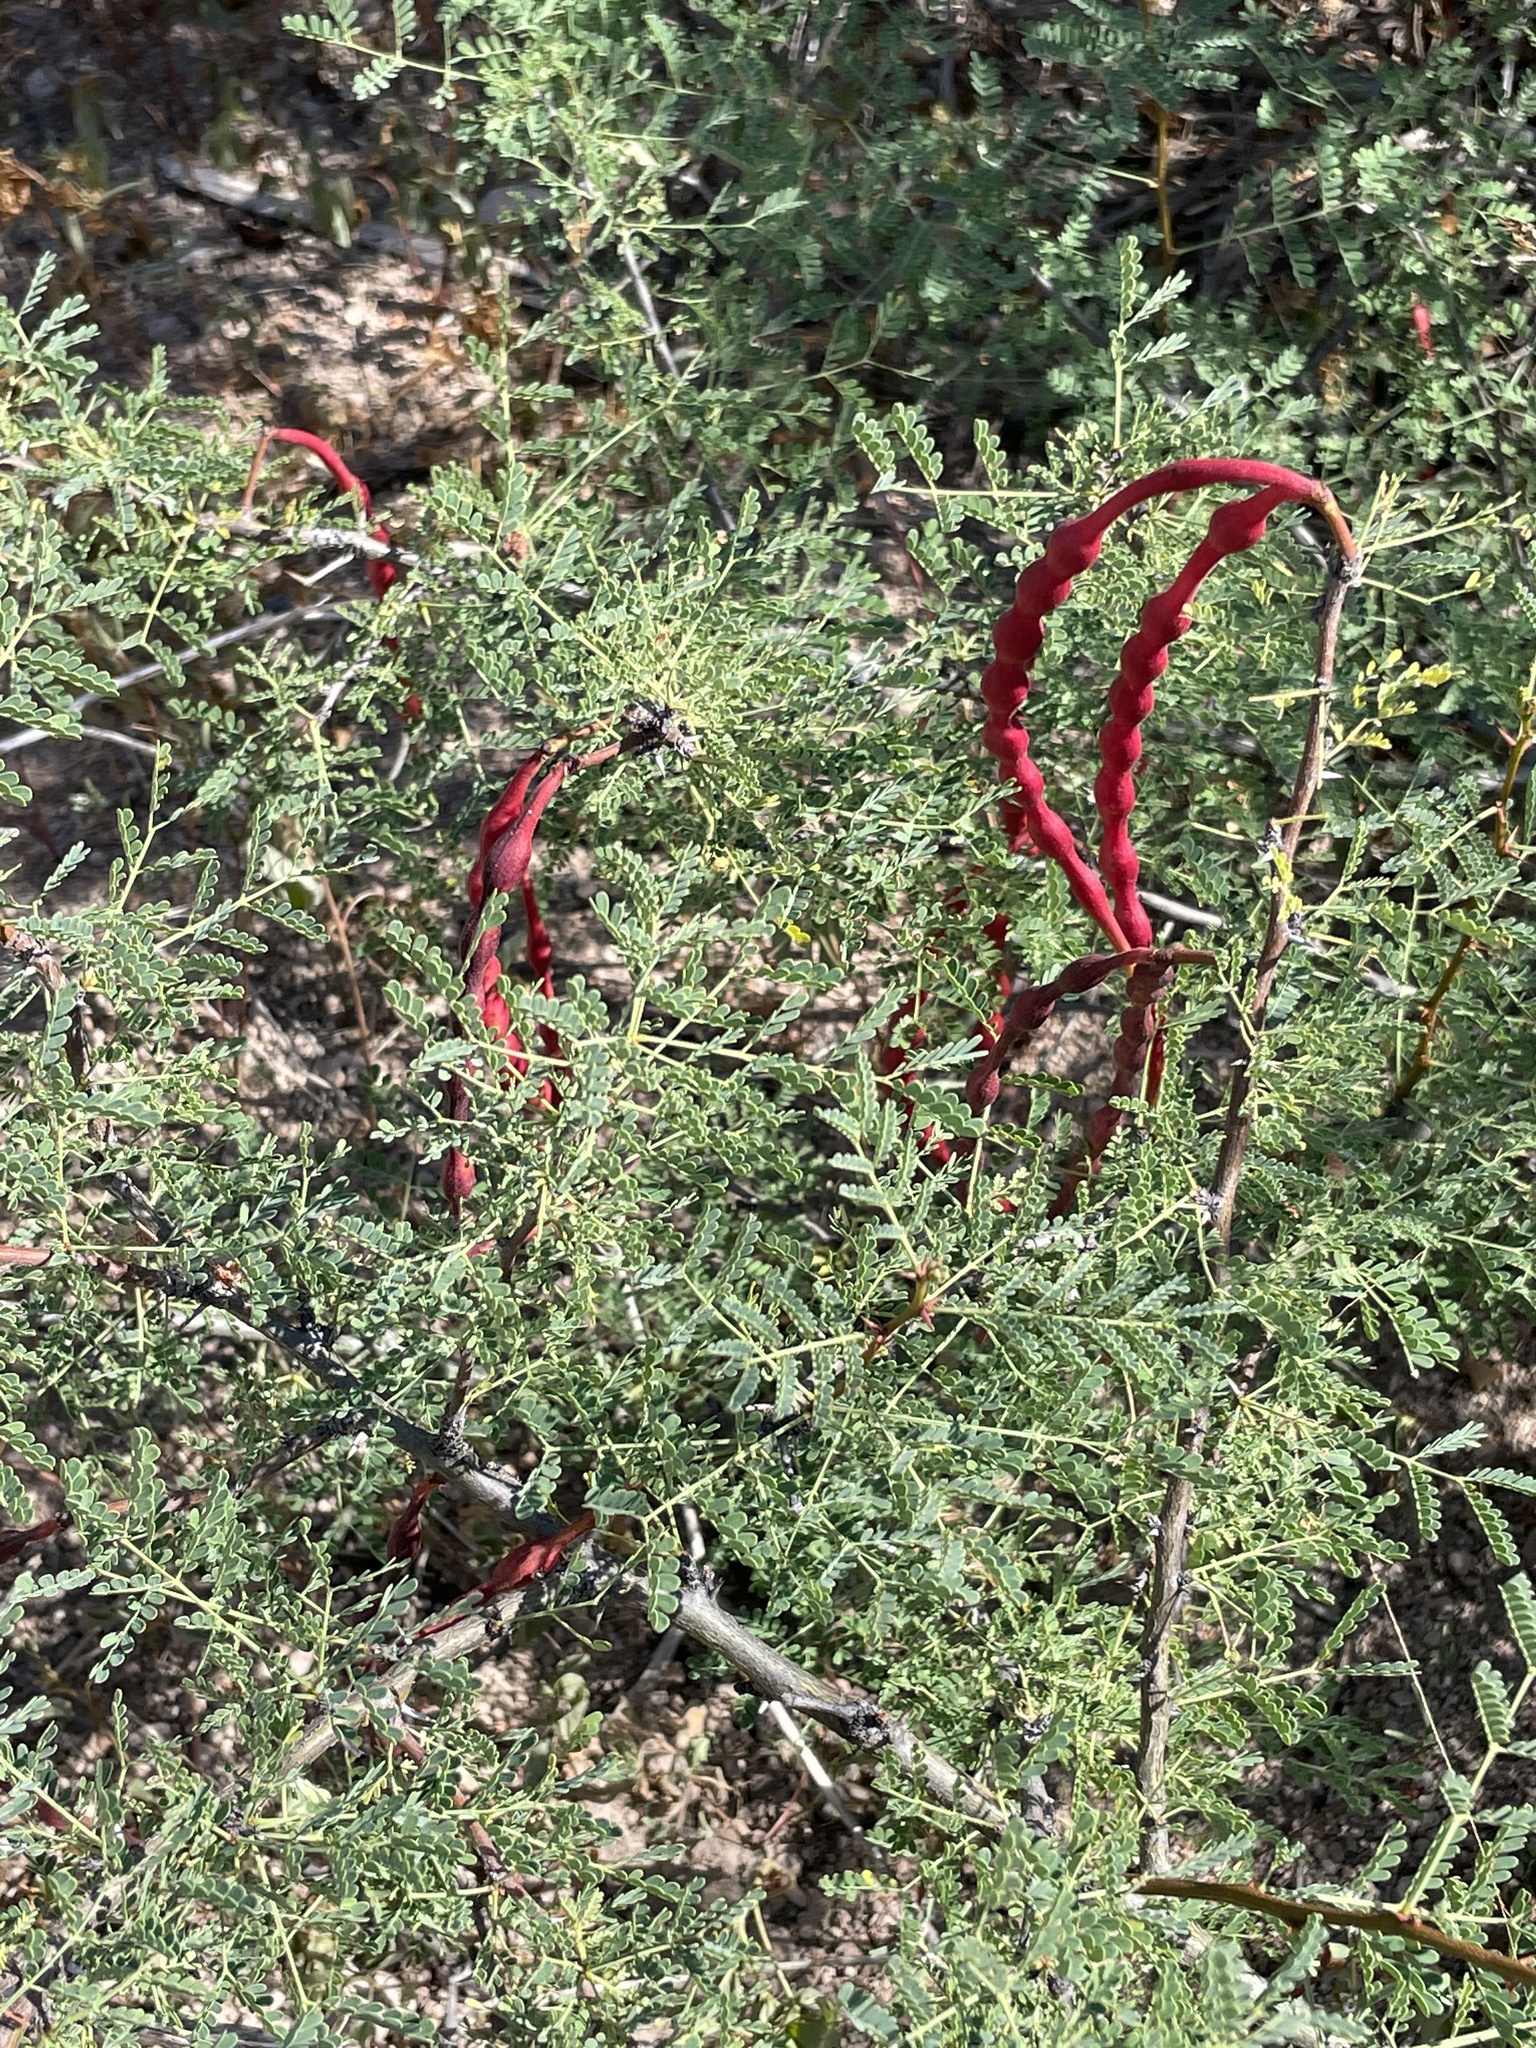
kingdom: Plantae
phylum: Tracheophyta
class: Magnoliopsida
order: Fabales
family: Fabaceae
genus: Vachellia
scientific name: Vachellia pacensis
